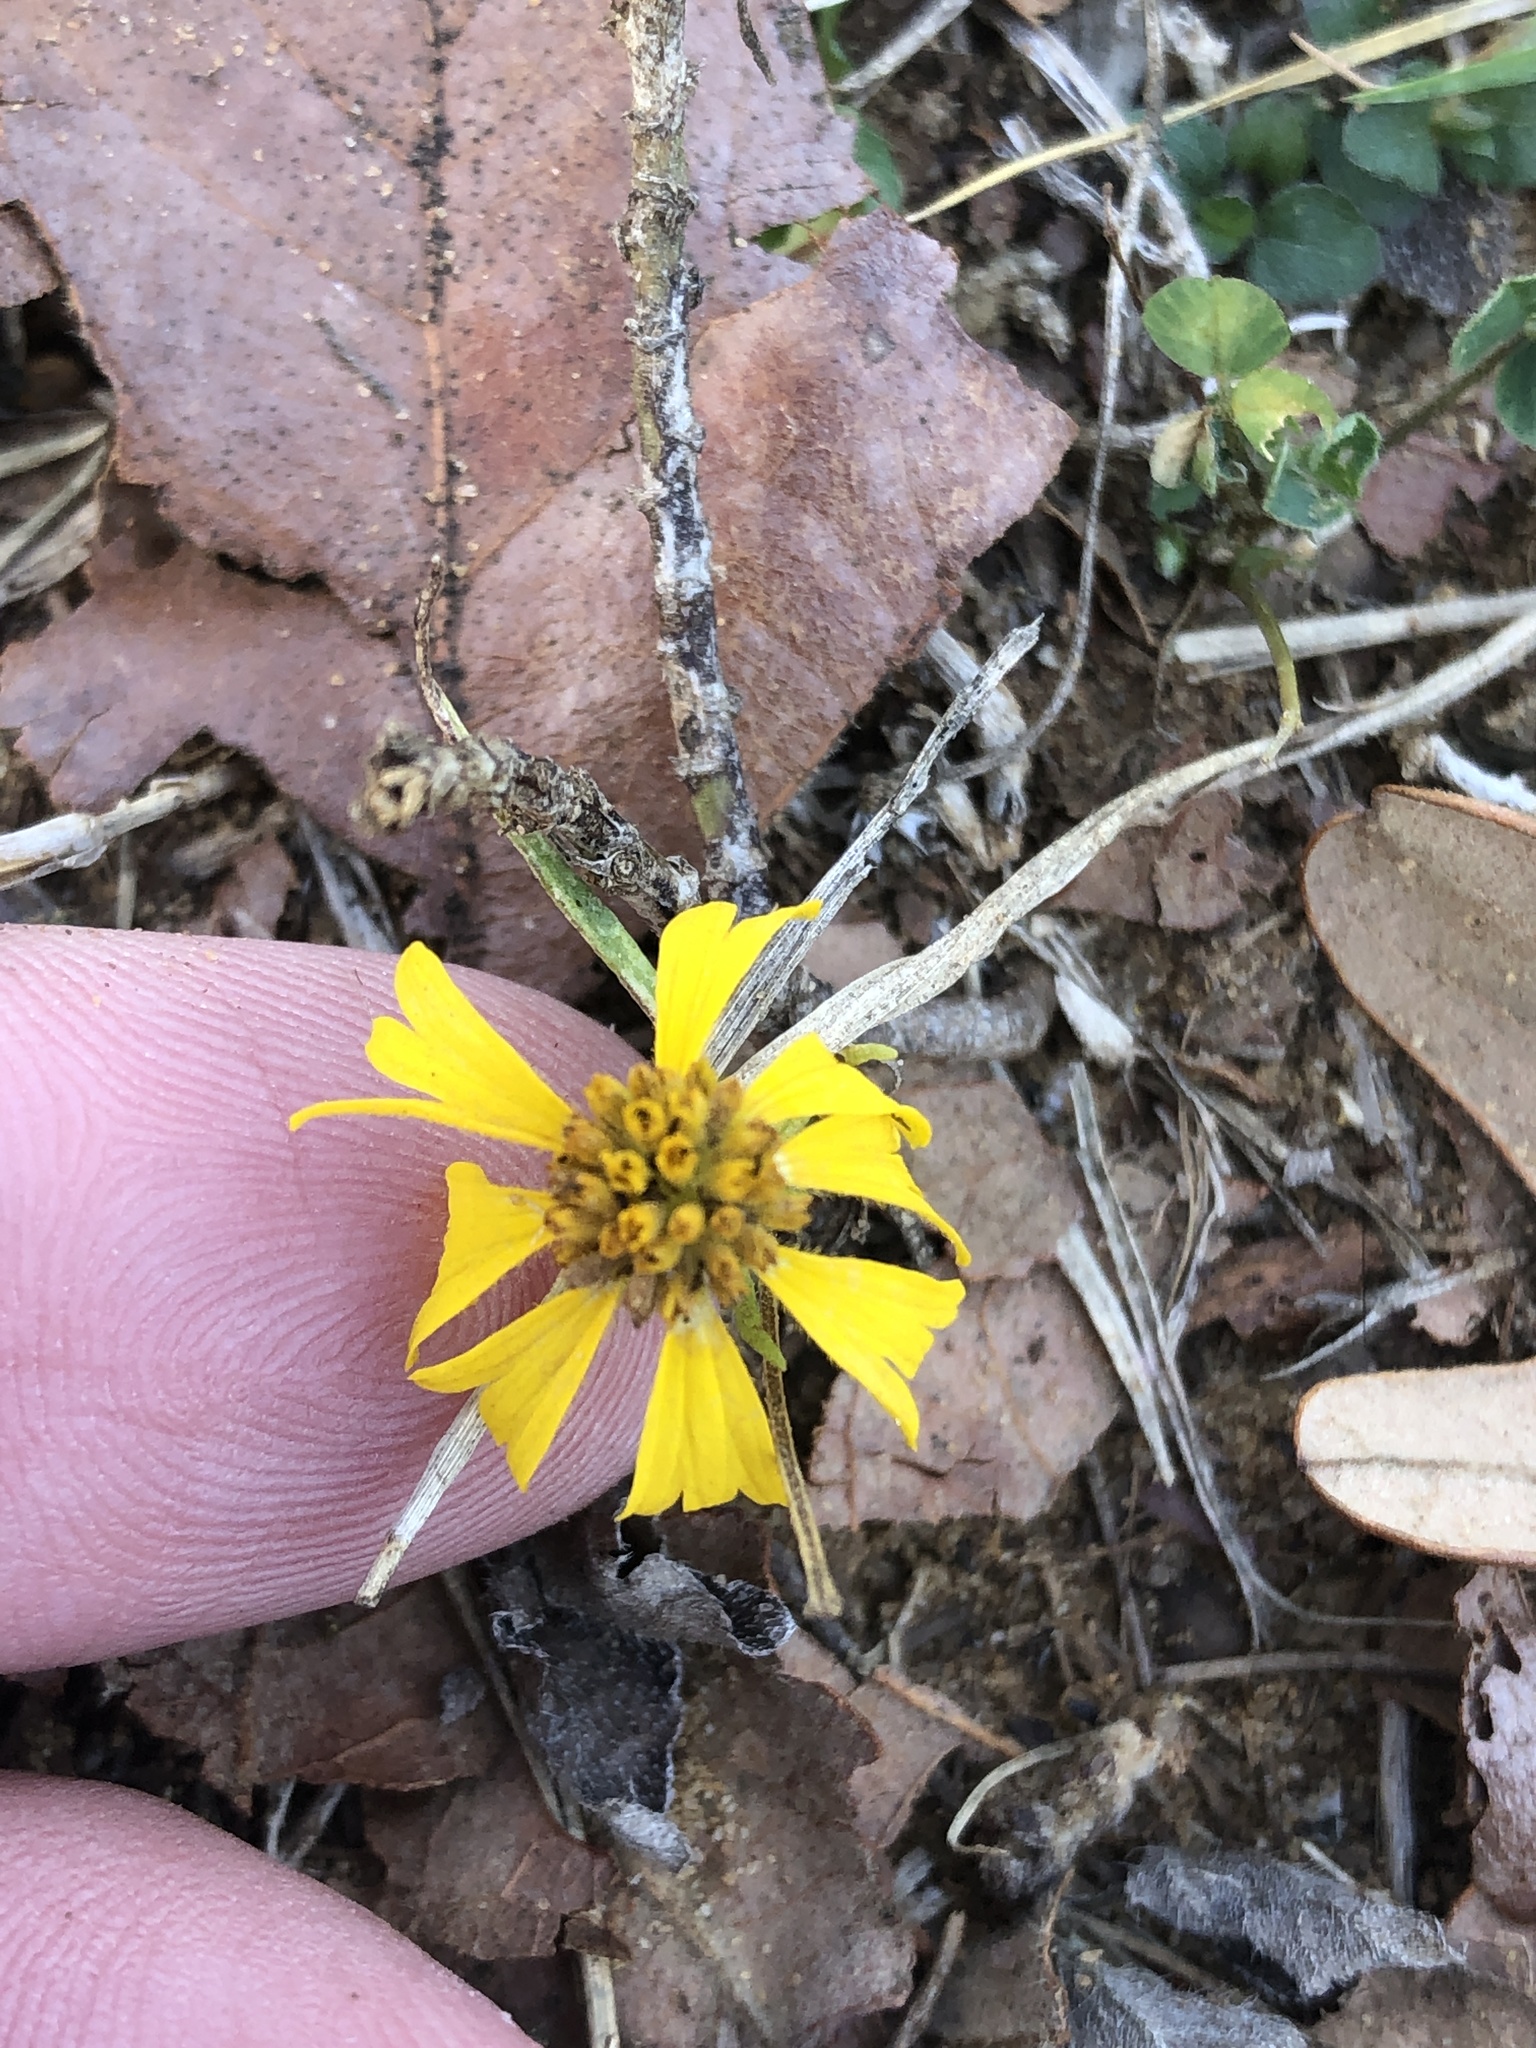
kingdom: Plantae
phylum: Tracheophyta
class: Magnoliopsida
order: Asterales
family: Asteraceae
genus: Helenium
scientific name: Helenium amarum
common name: Bitter sneezeweed
